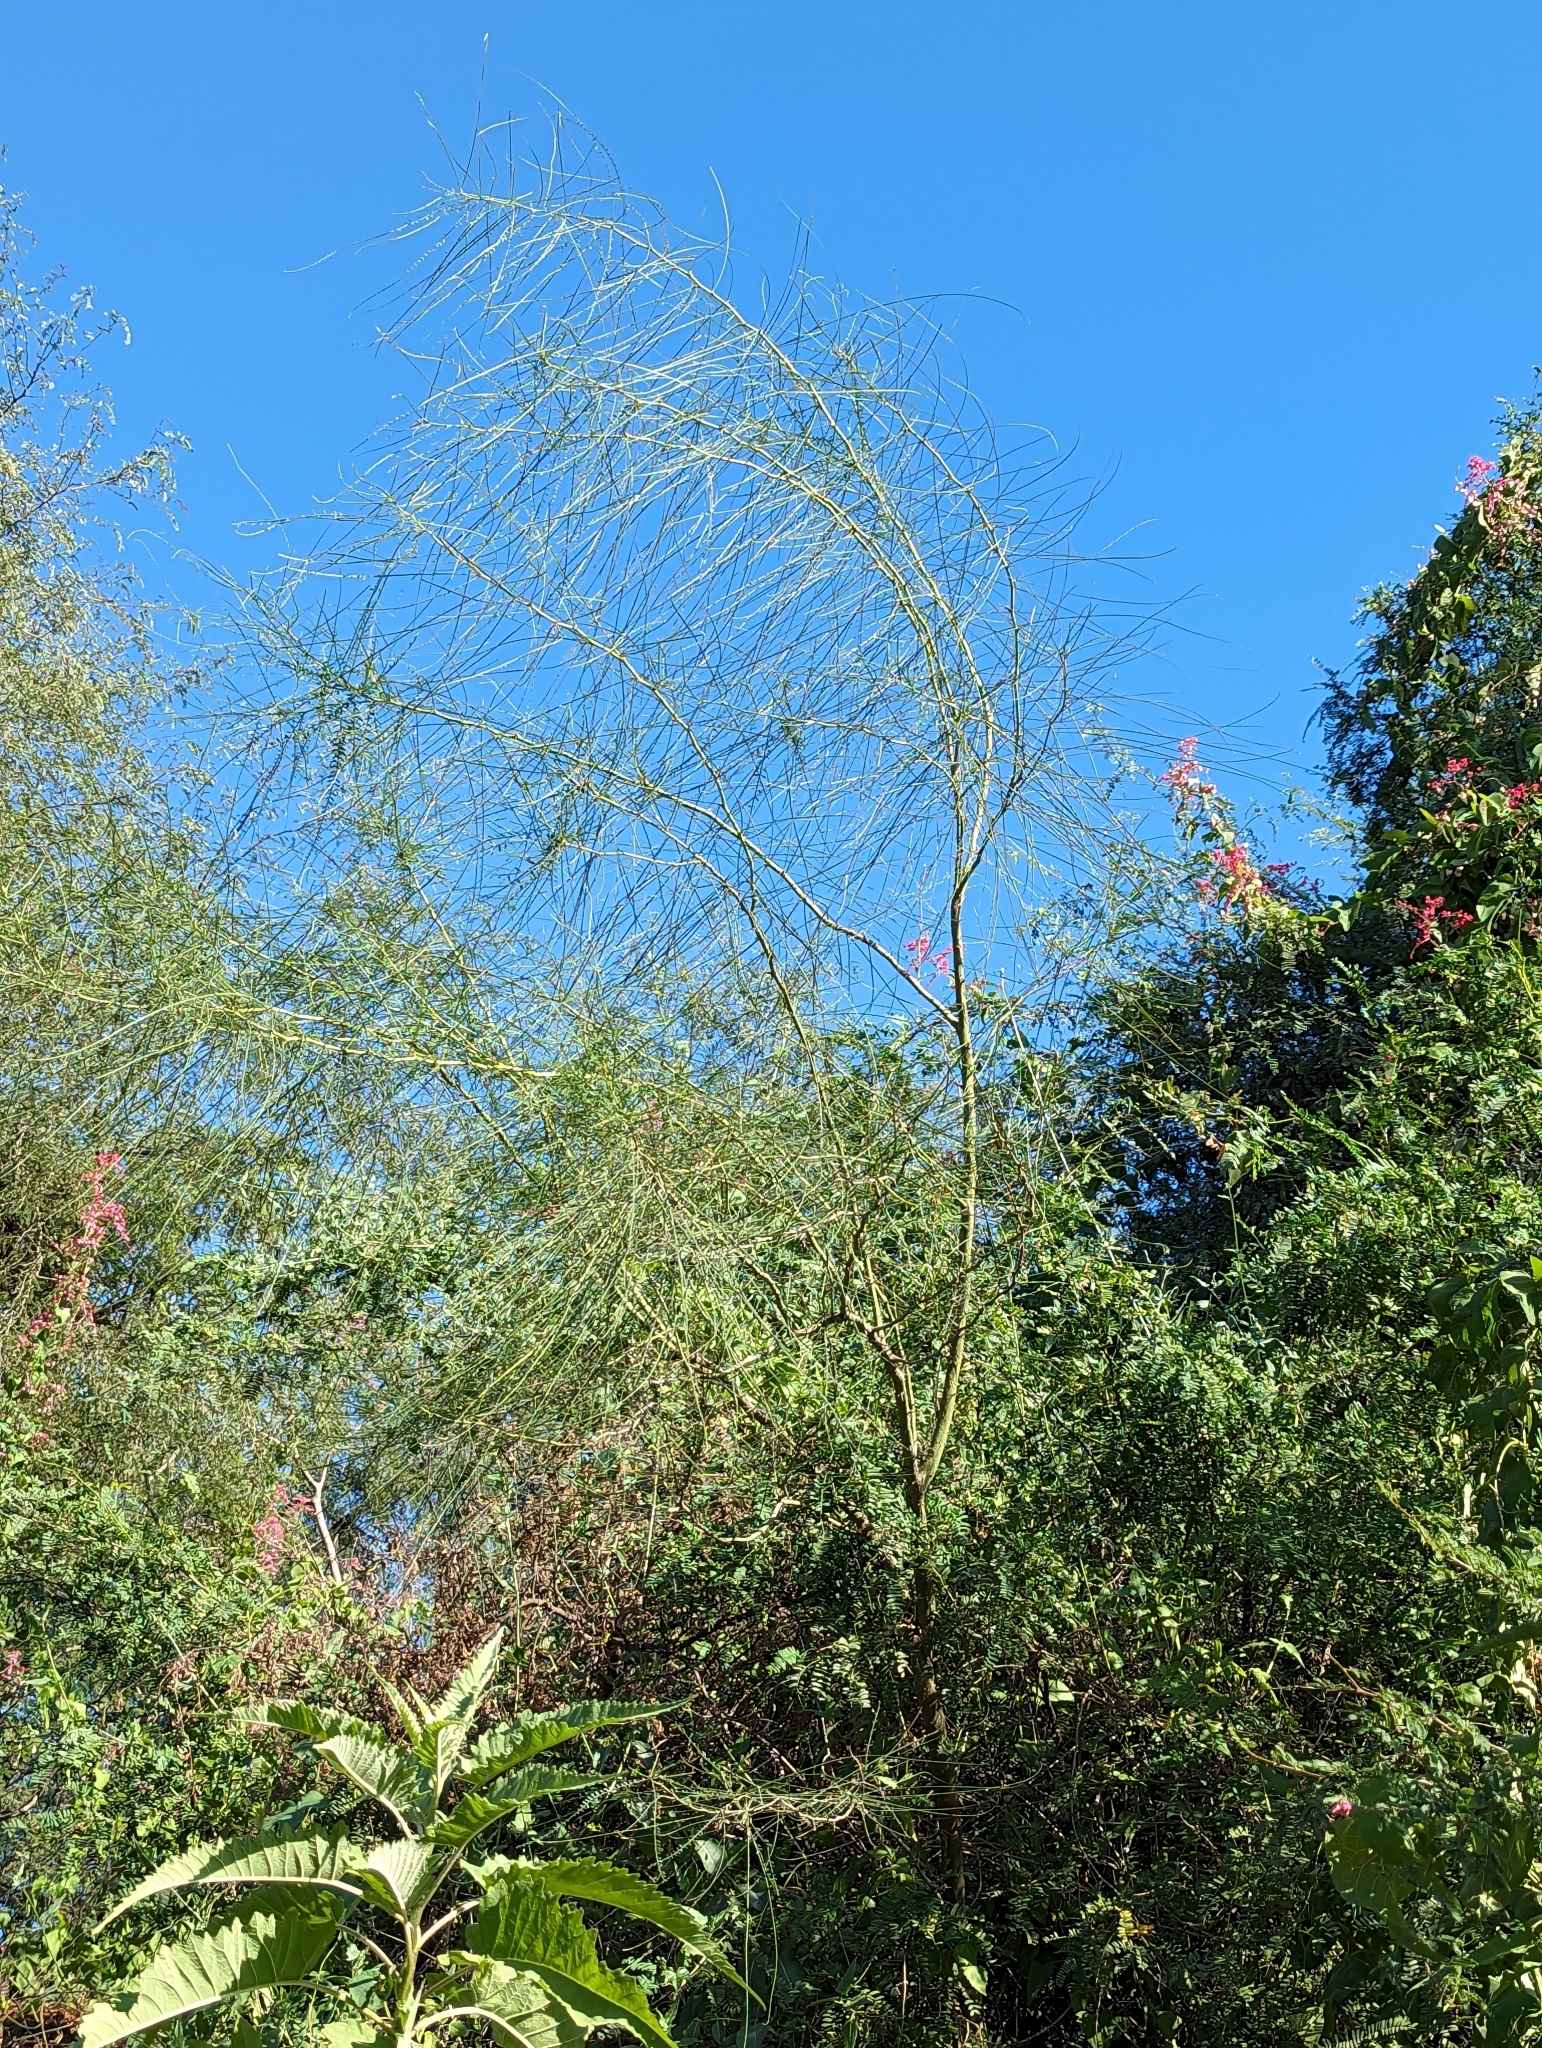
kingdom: Plantae
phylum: Tracheophyta
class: Magnoliopsida
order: Fabales
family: Fabaceae
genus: Parkinsonia
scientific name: Parkinsonia aculeata
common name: Jerusalem thorn
